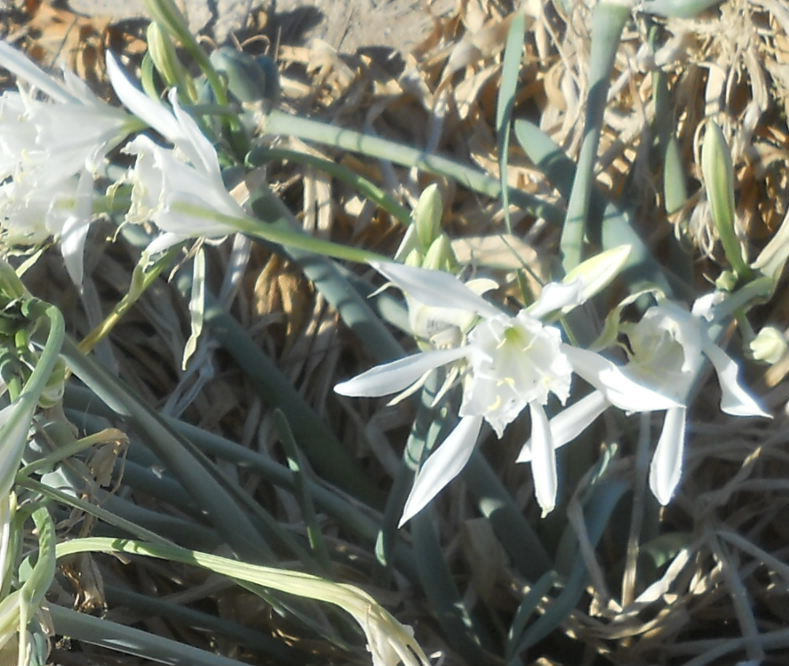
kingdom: Plantae
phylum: Tracheophyta
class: Liliopsida
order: Asparagales
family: Amaryllidaceae
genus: Pancratium
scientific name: Pancratium maritimum
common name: Sea-daffodil
